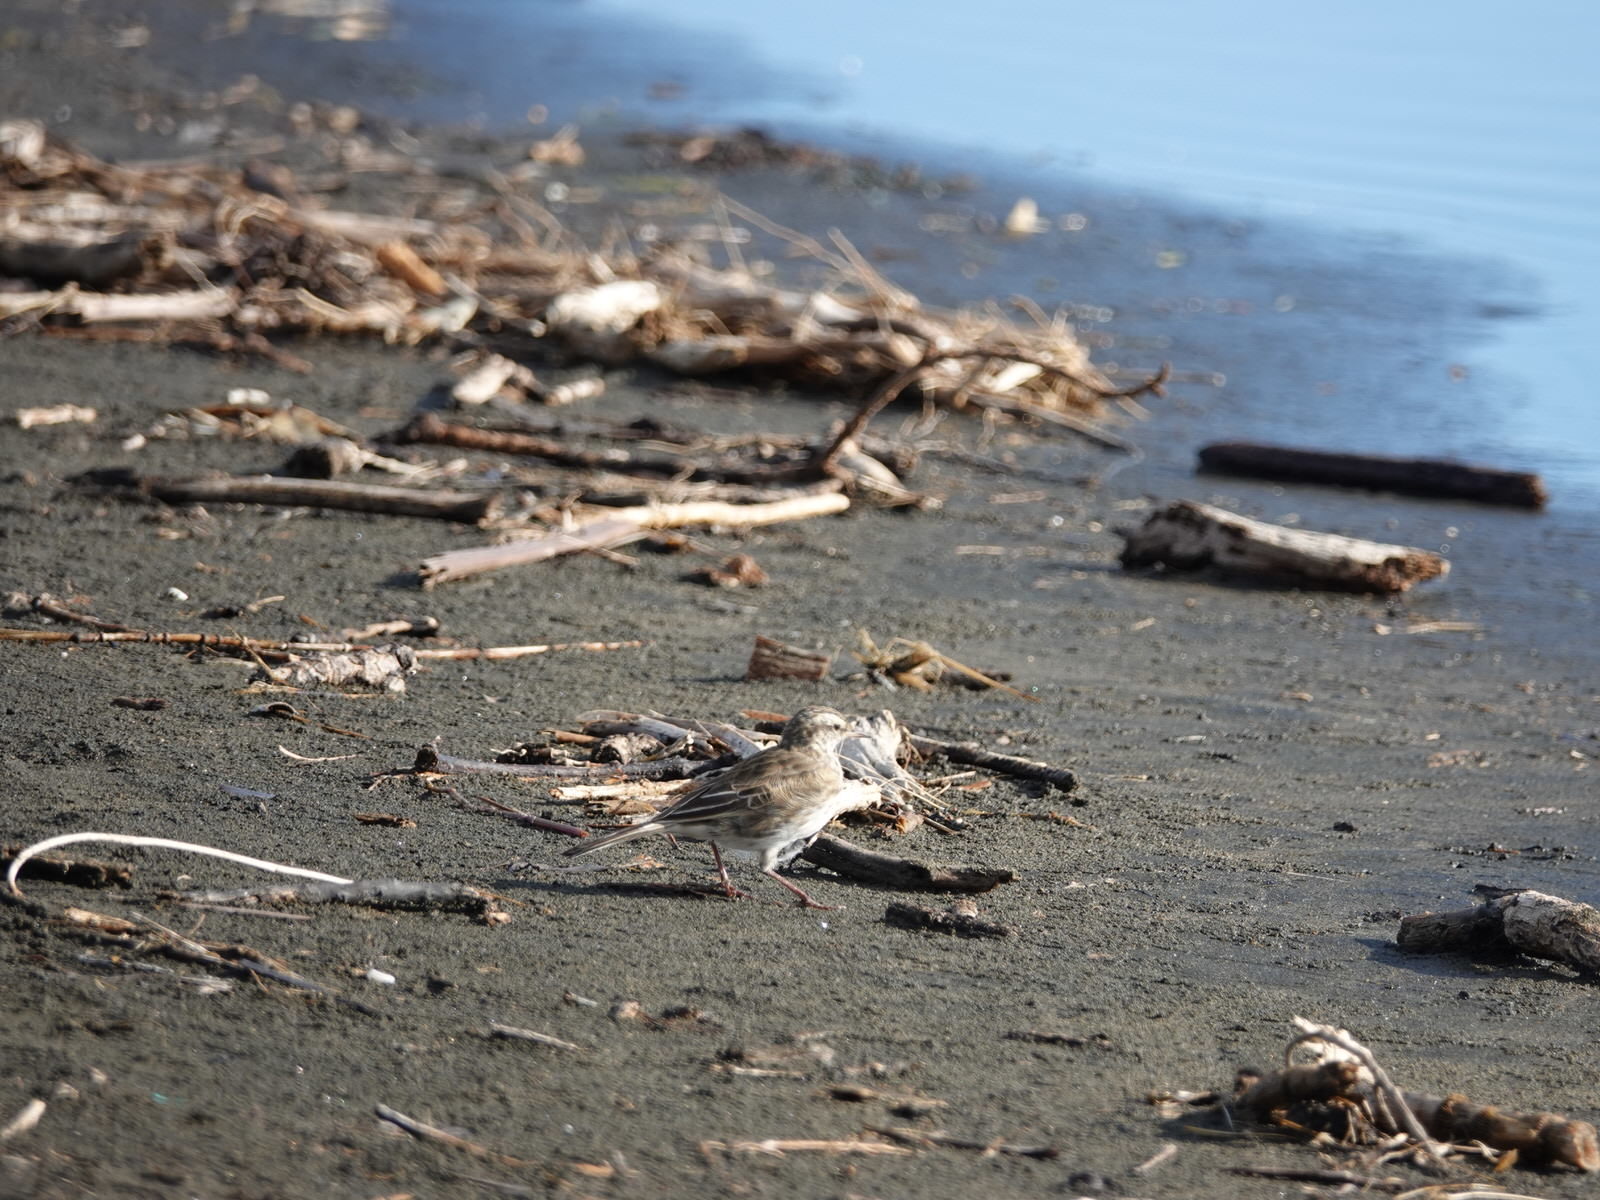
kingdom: Animalia
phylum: Chordata
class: Aves
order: Passeriformes
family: Motacillidae
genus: Anthus
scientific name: Anthus novaeseelandiae
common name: New zealand pipit
